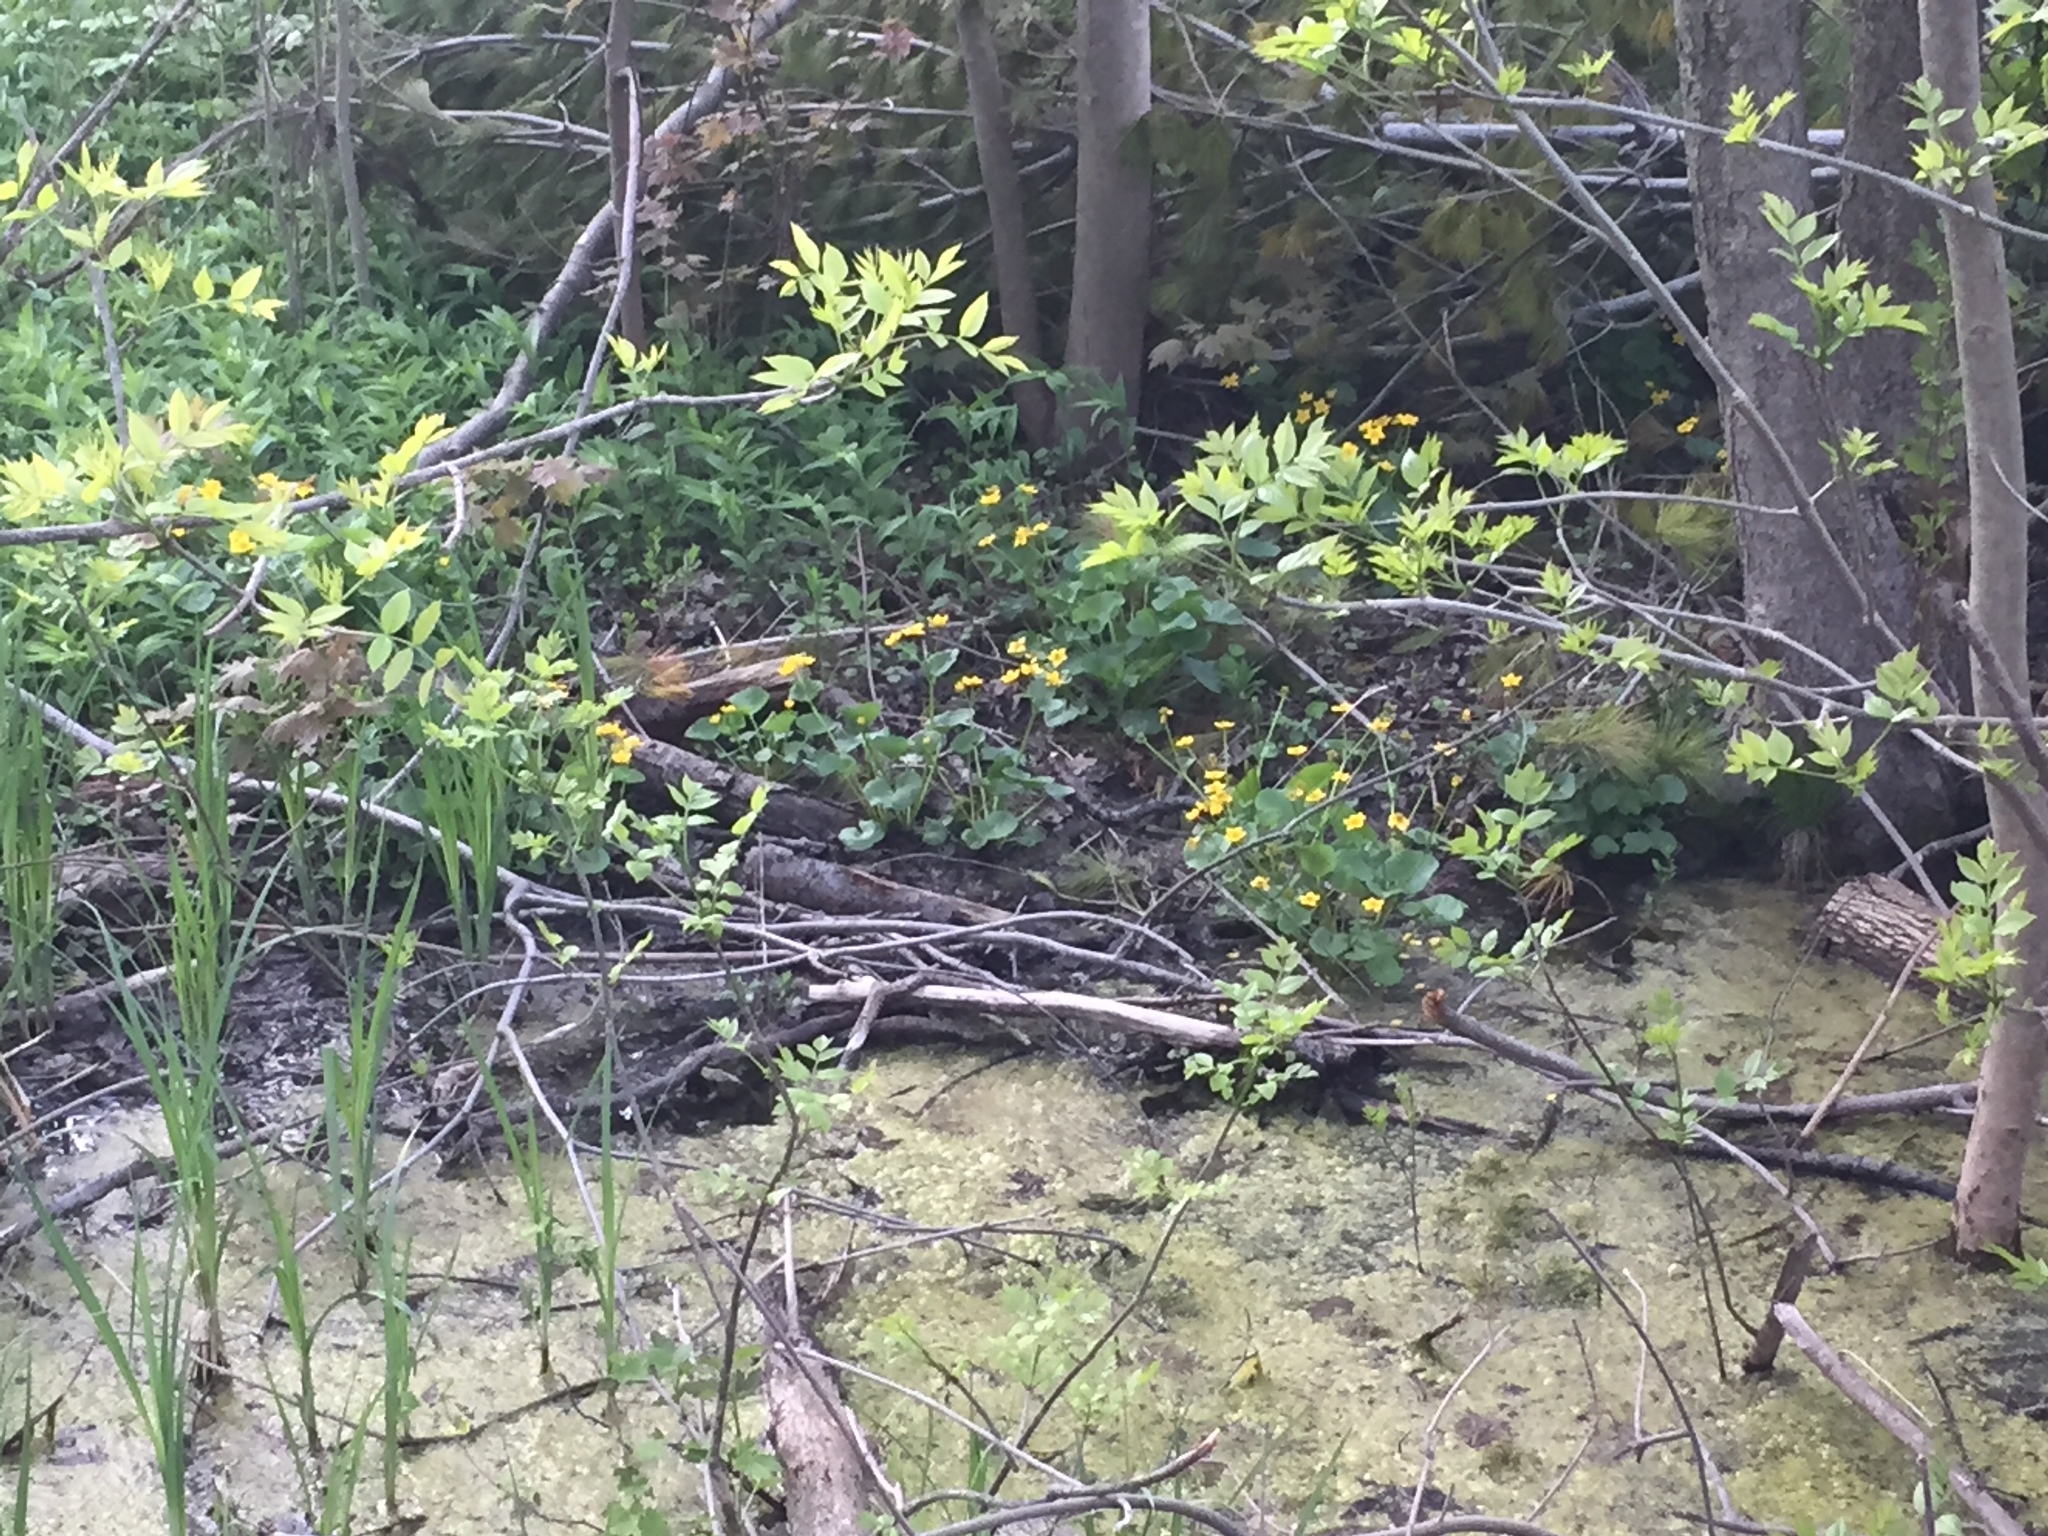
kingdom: Plantae
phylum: Tracheophyta
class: Magnoliopsida
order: Ranunculales
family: Ranunculaceae
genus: Caltha
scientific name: Caltha palustris
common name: Marsh marigold
